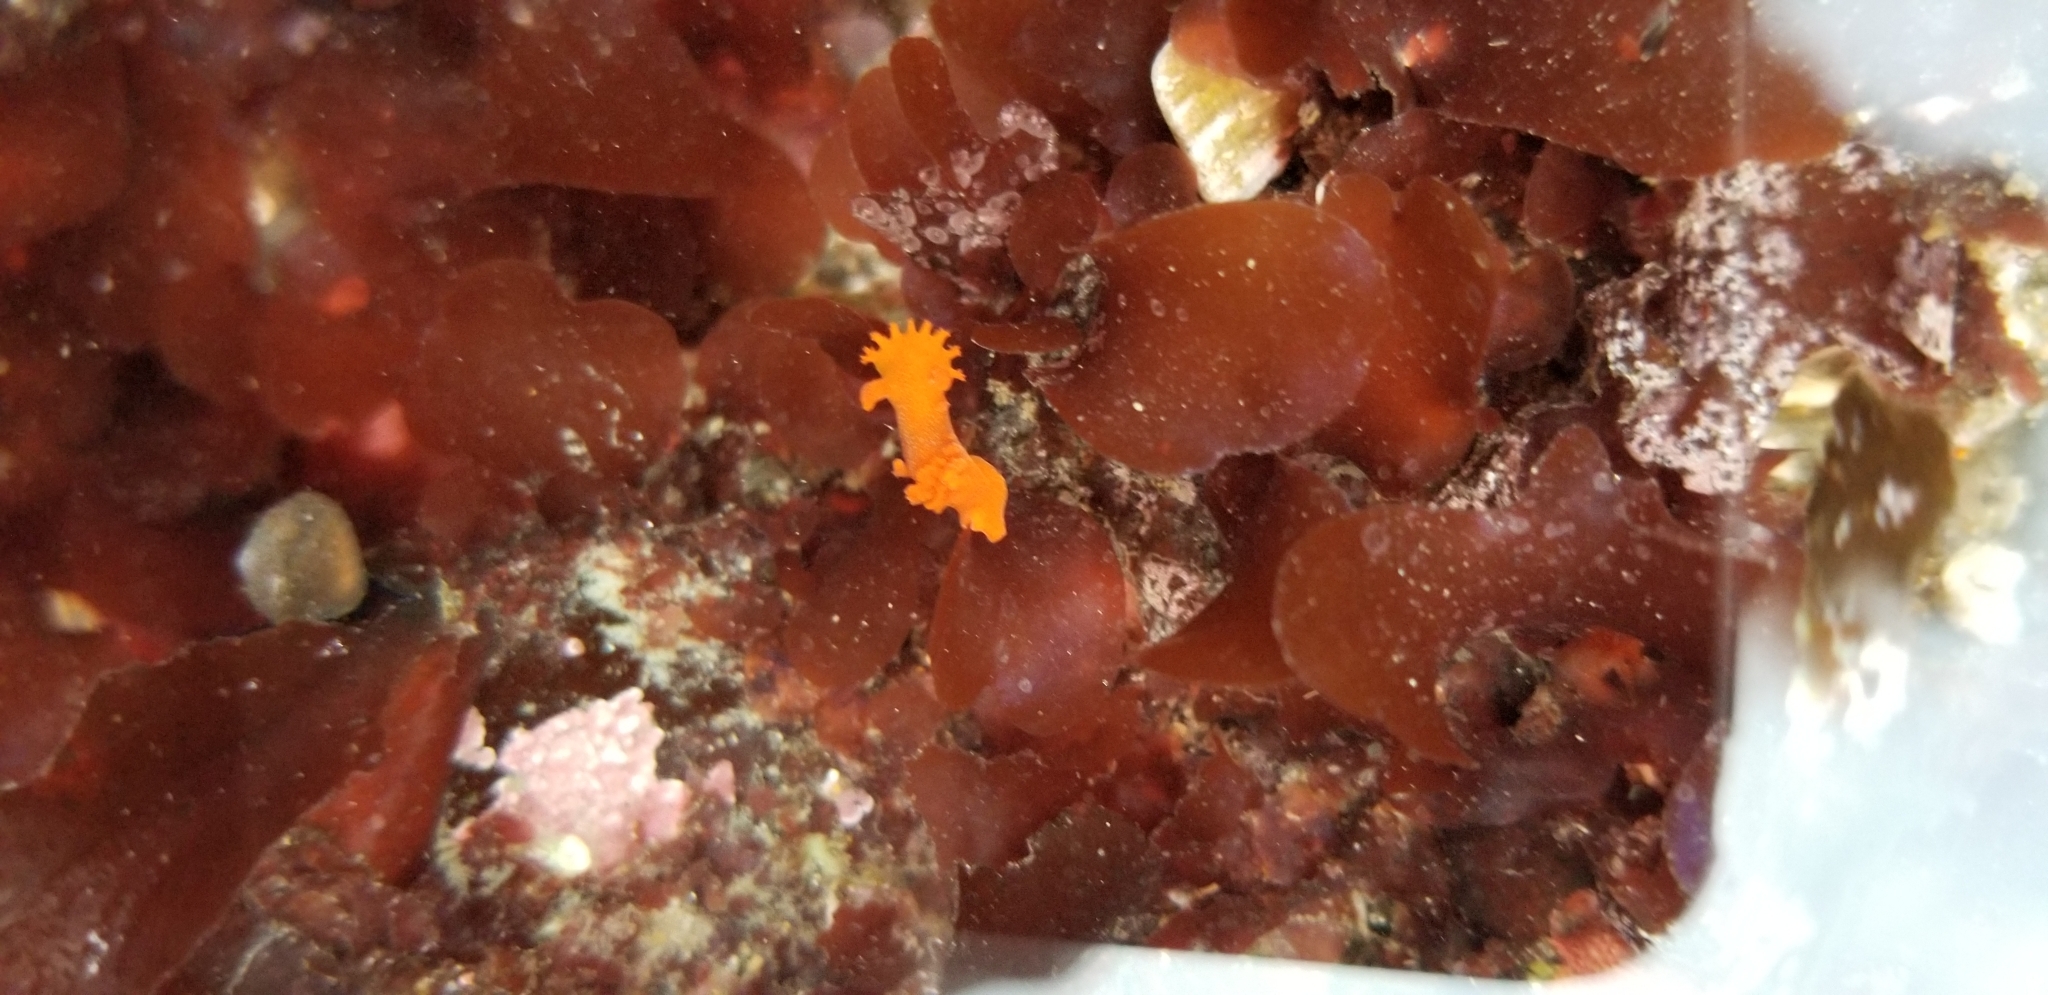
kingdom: Animalia
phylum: Mollusca
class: Gastropoda
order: Nudibranchia
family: Polyceridae
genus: Triopha
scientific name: Triopha maculata
